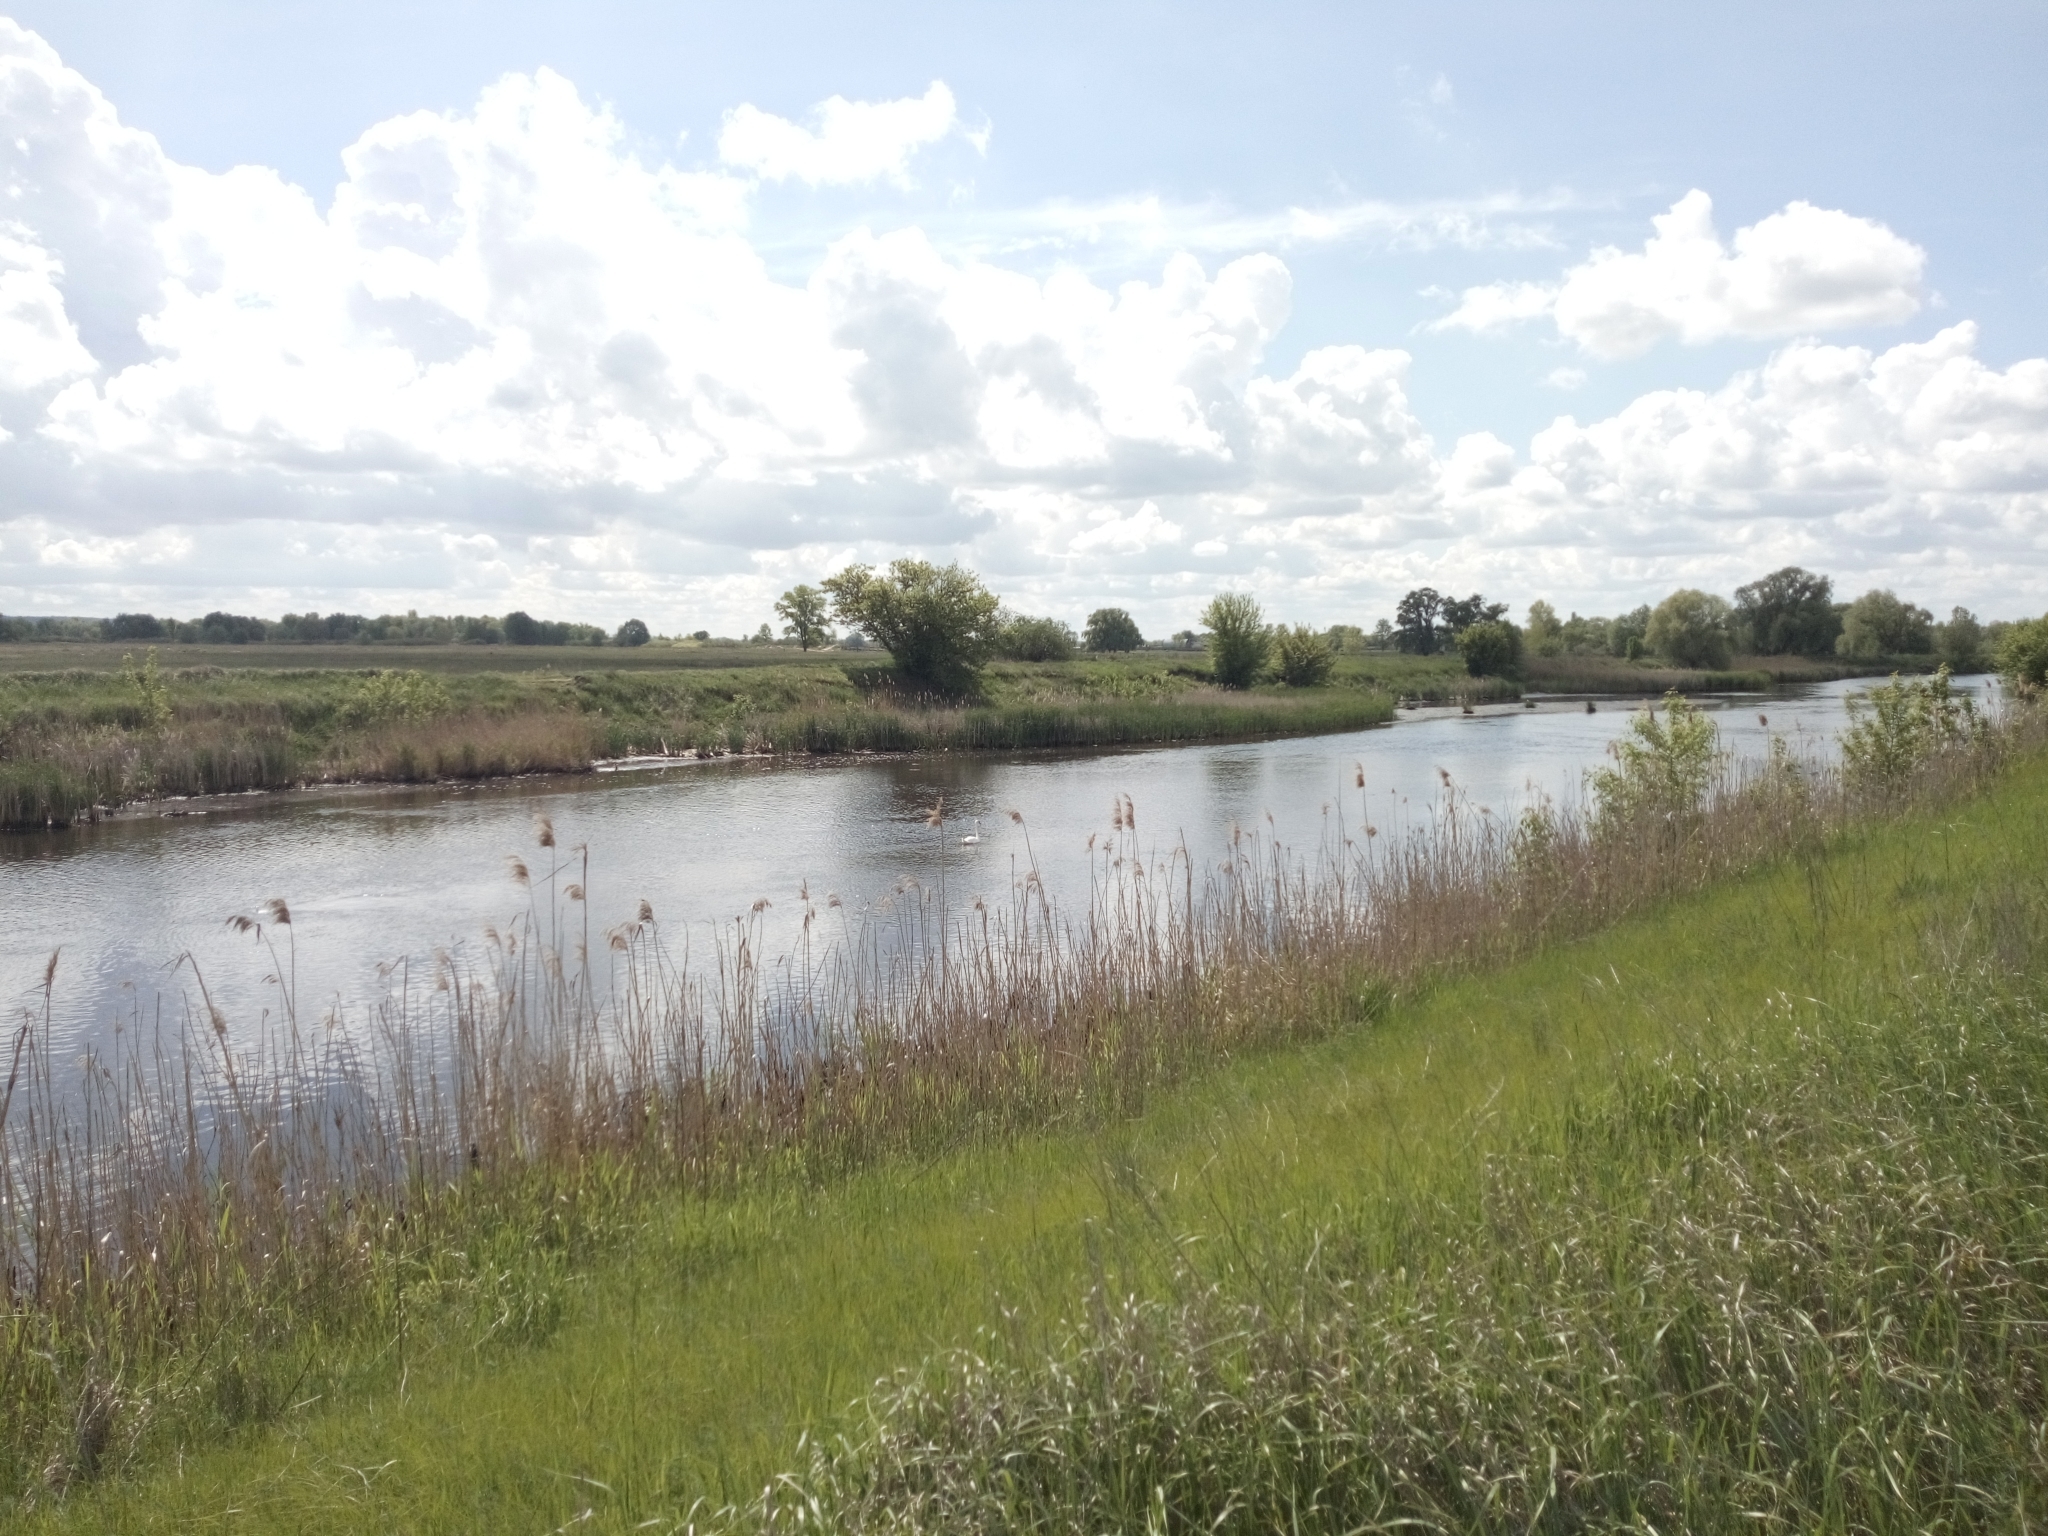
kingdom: Animalia
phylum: Chordata
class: Aves
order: Anseriformes
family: Anatidae
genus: Cygnus
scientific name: Cygnus olor
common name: Mute swan
